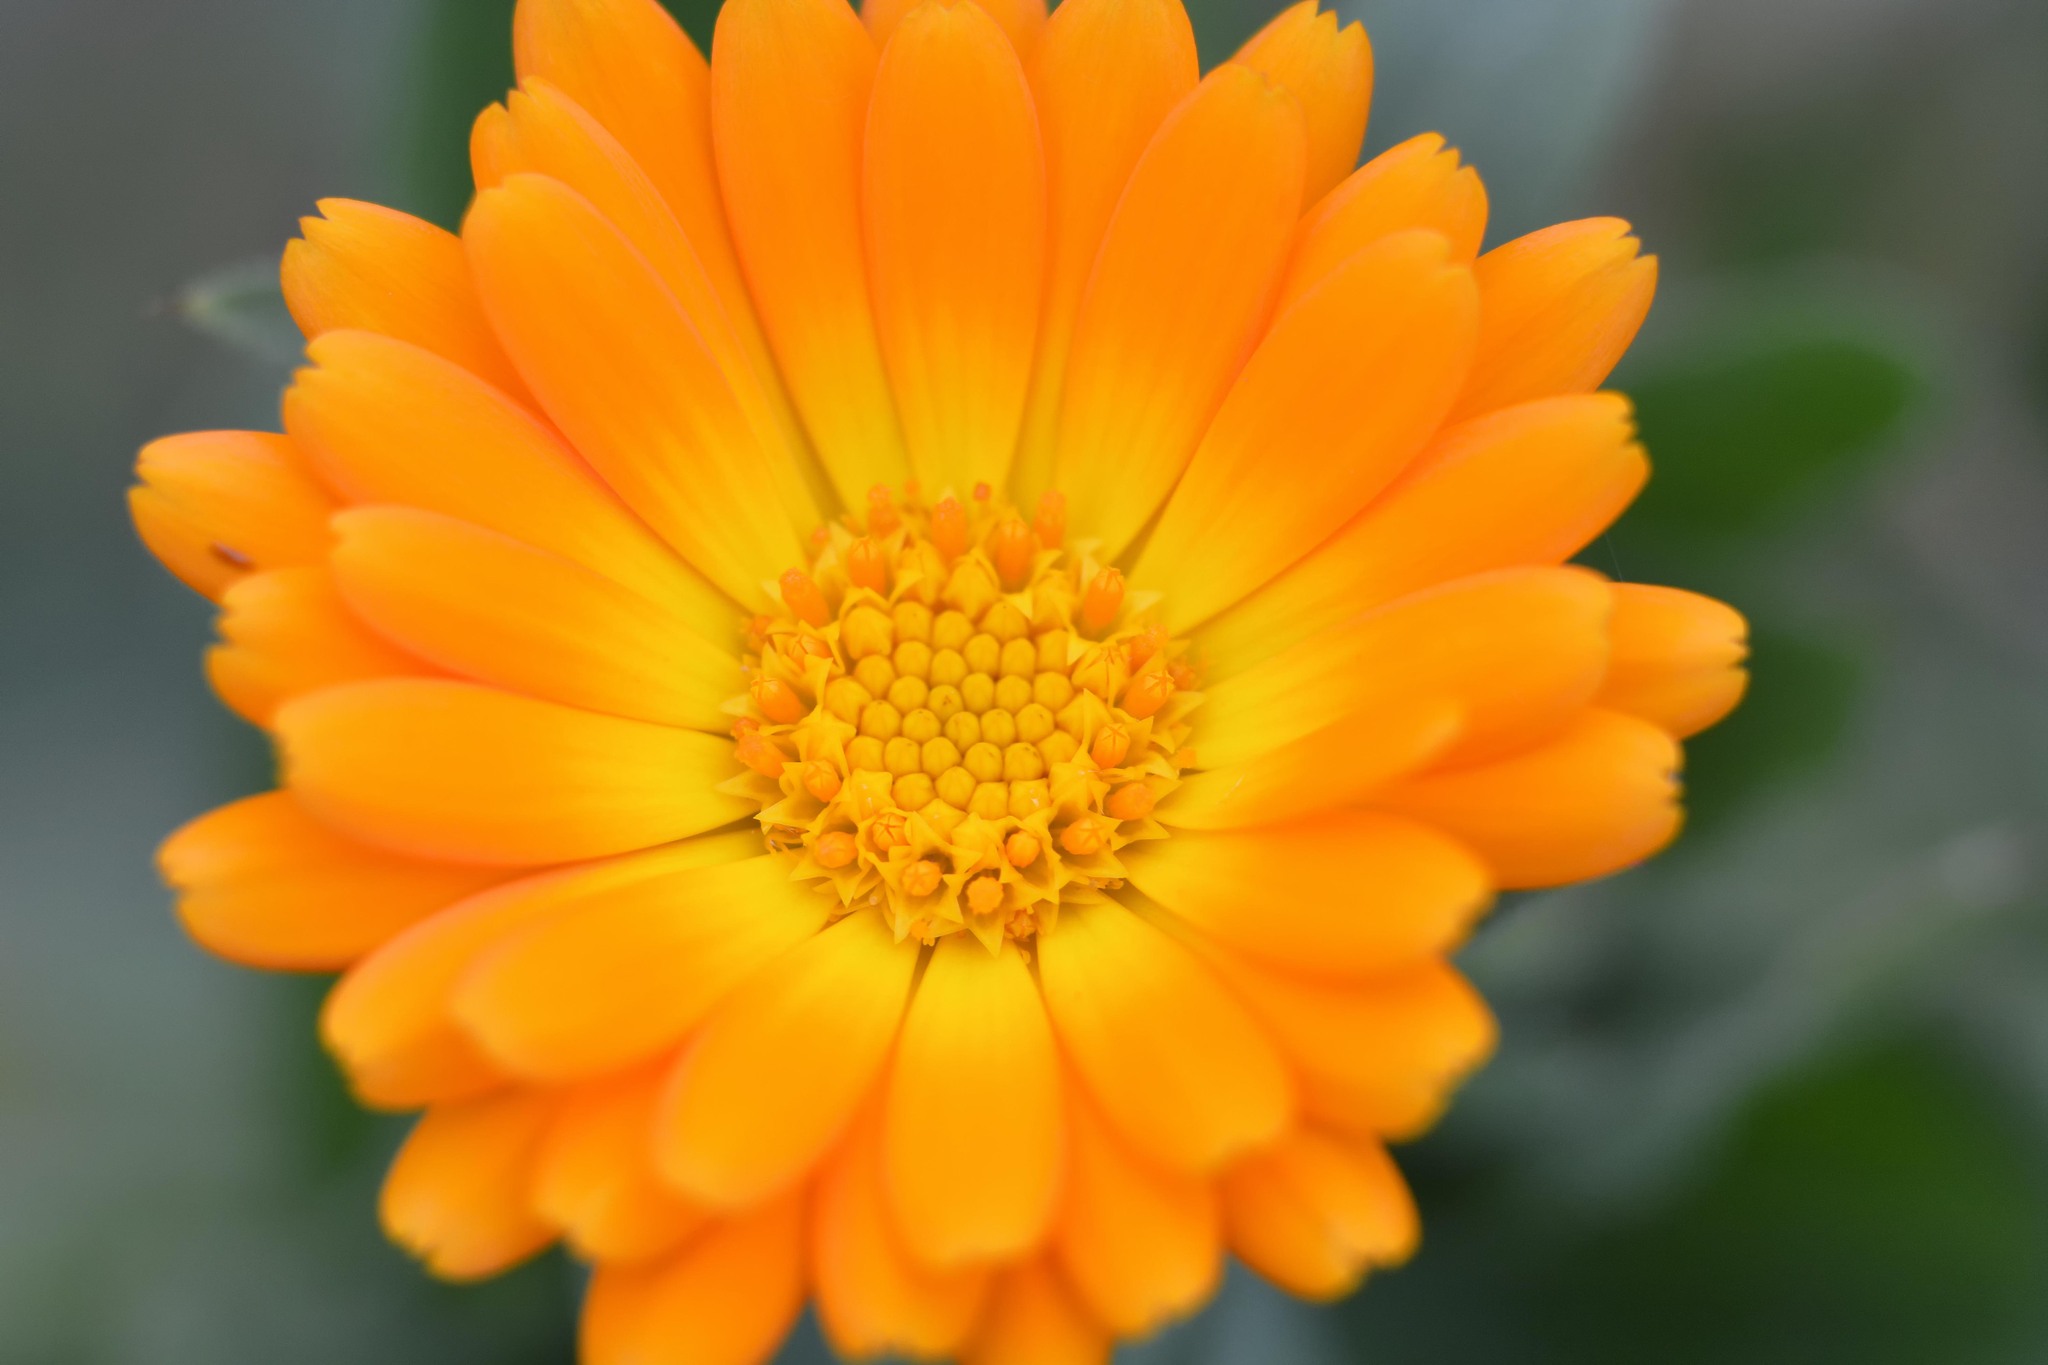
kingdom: Plantae
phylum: Tracheophyta
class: Magnoliopsida
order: Asterales
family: Asteraceae
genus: Calendula
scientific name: Calendula officinalis
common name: Pot marigold
